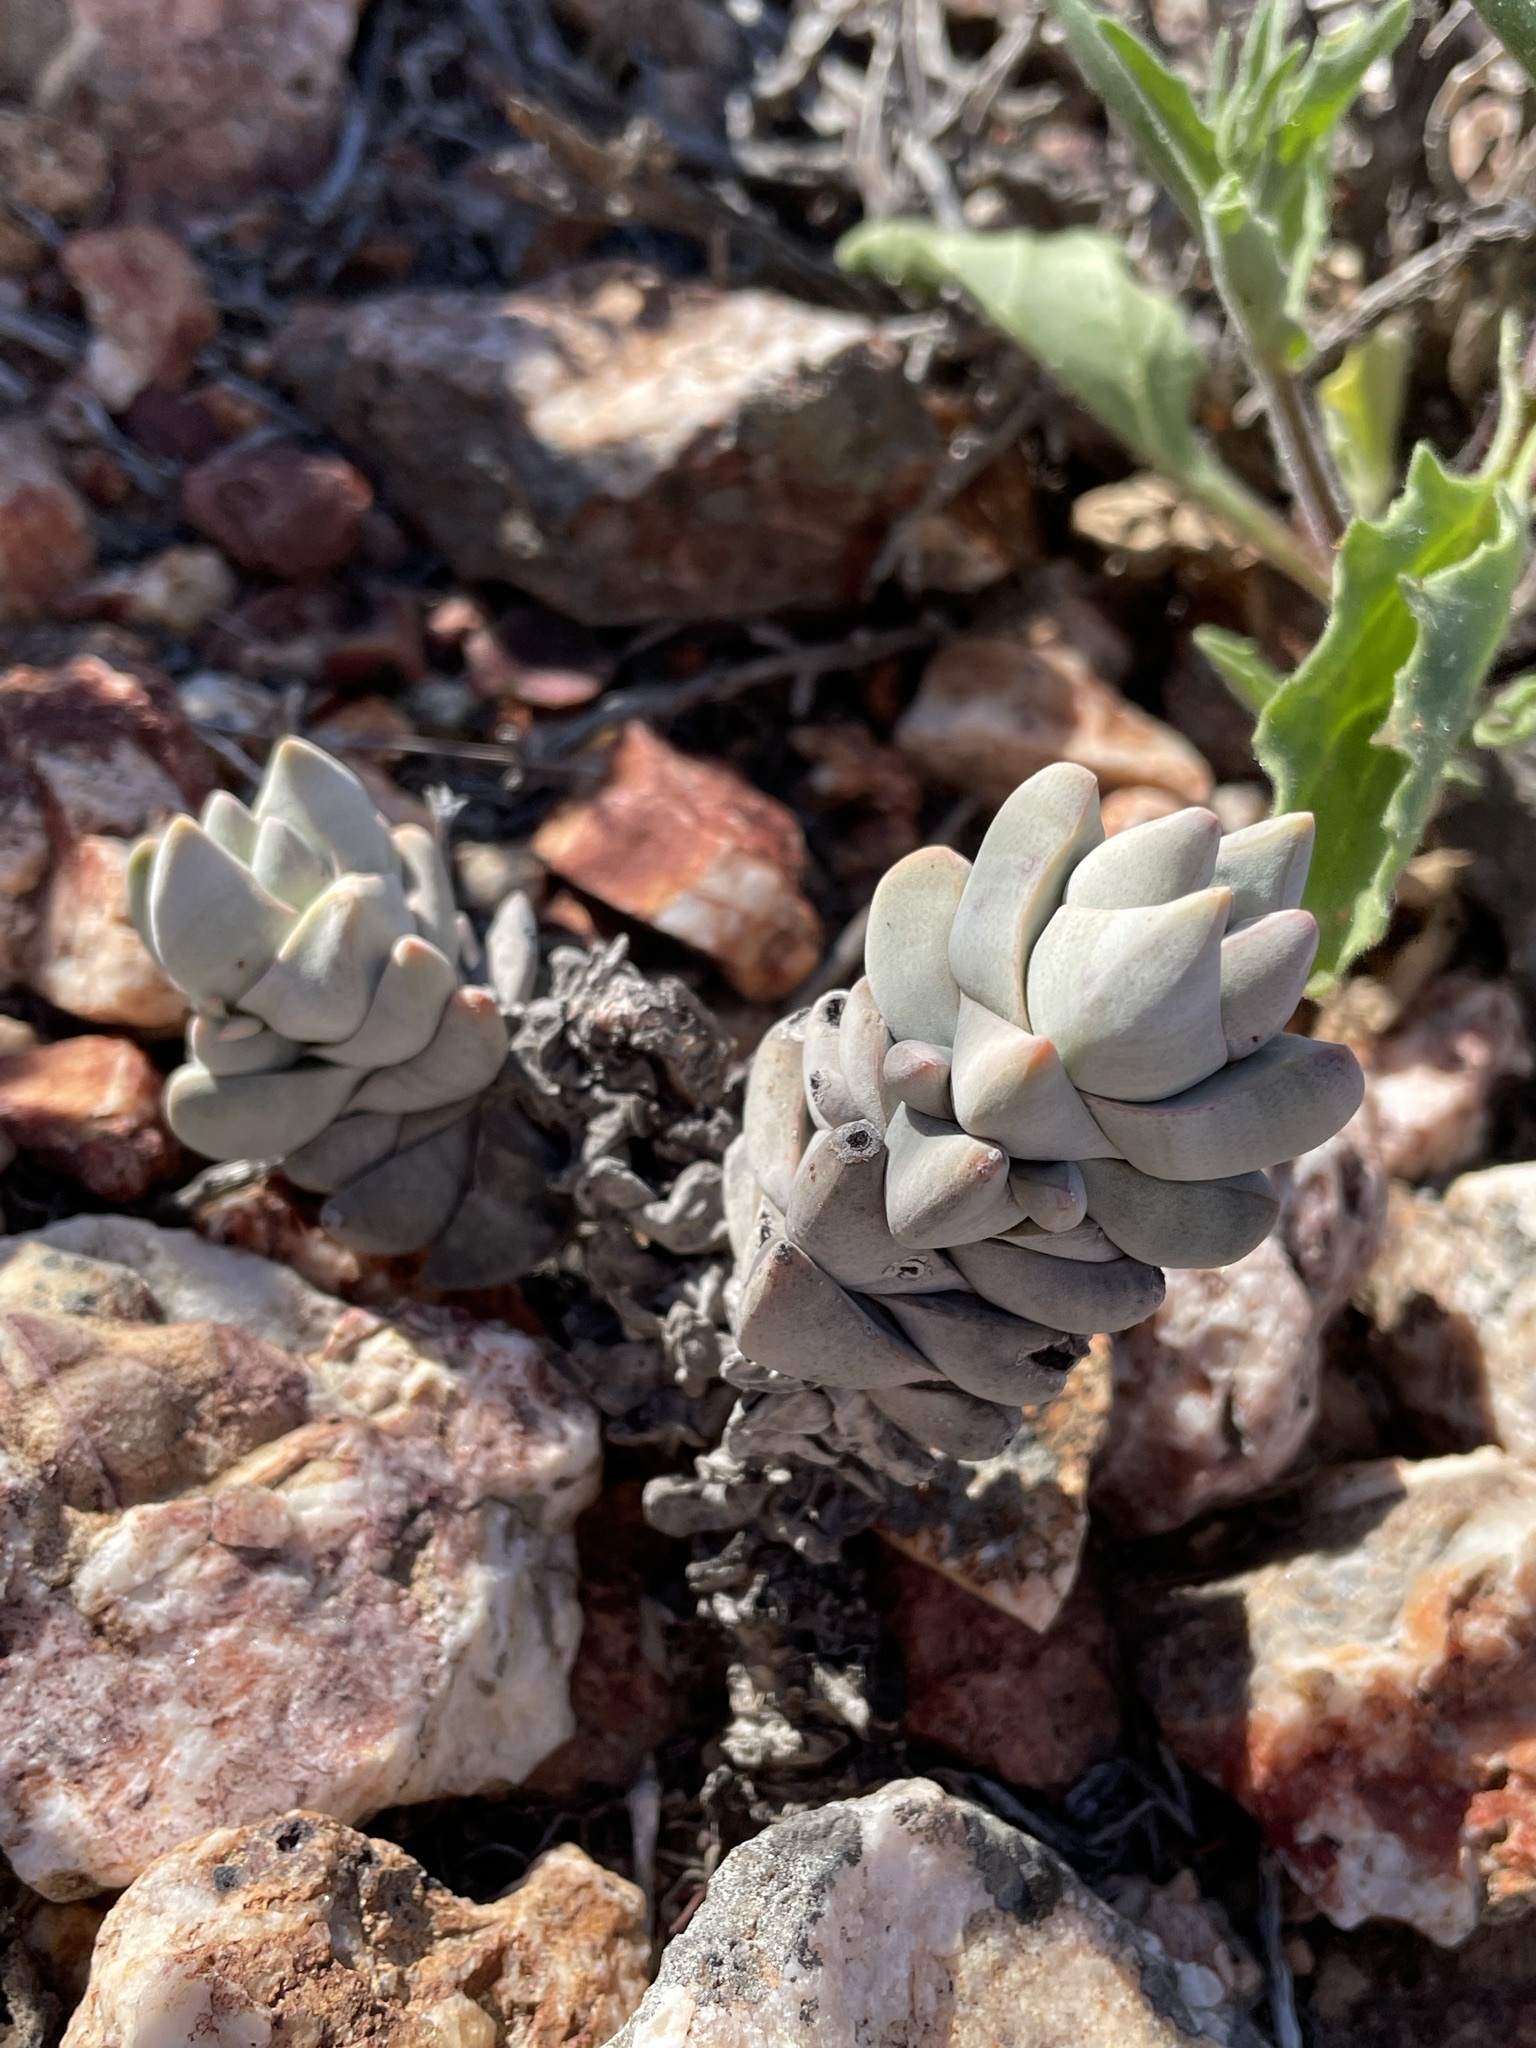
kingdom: Plantae
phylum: Tracheophyta
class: Magnoliopsida
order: Saxifragales
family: Crassulaceae
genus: Crassula
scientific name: Crassula deceptor
